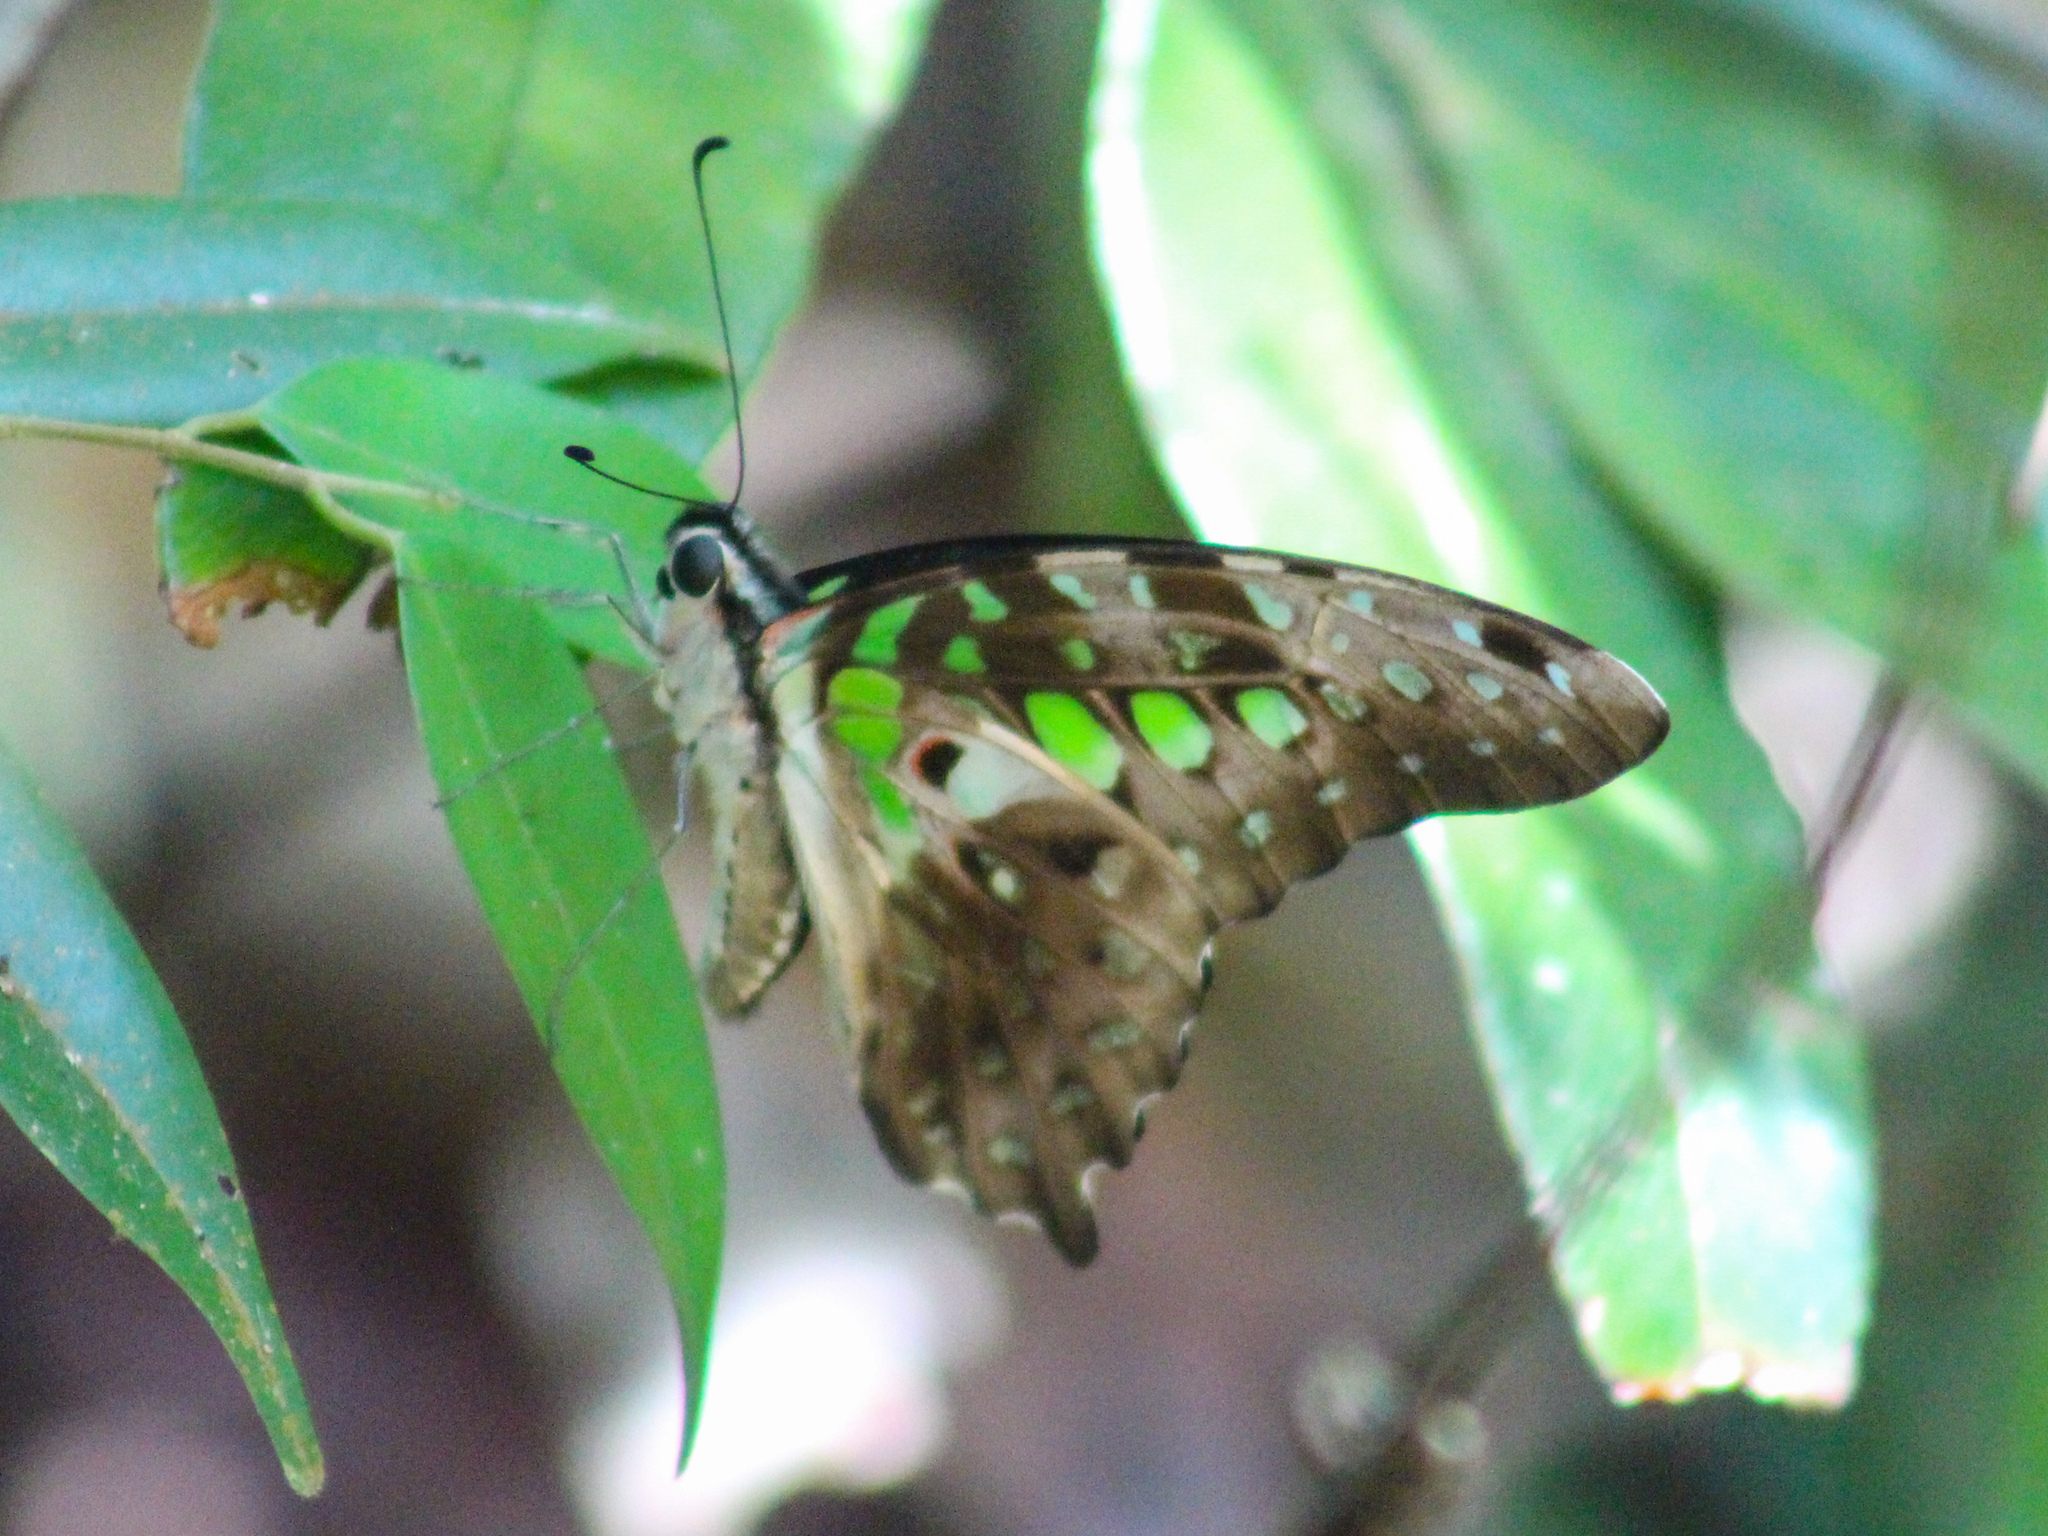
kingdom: Animalia
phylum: Arthropoda
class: Insecta
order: Lepidoptera
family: Papilionidae
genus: Graphium
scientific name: Graphium agamemnon
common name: Tailed jay
